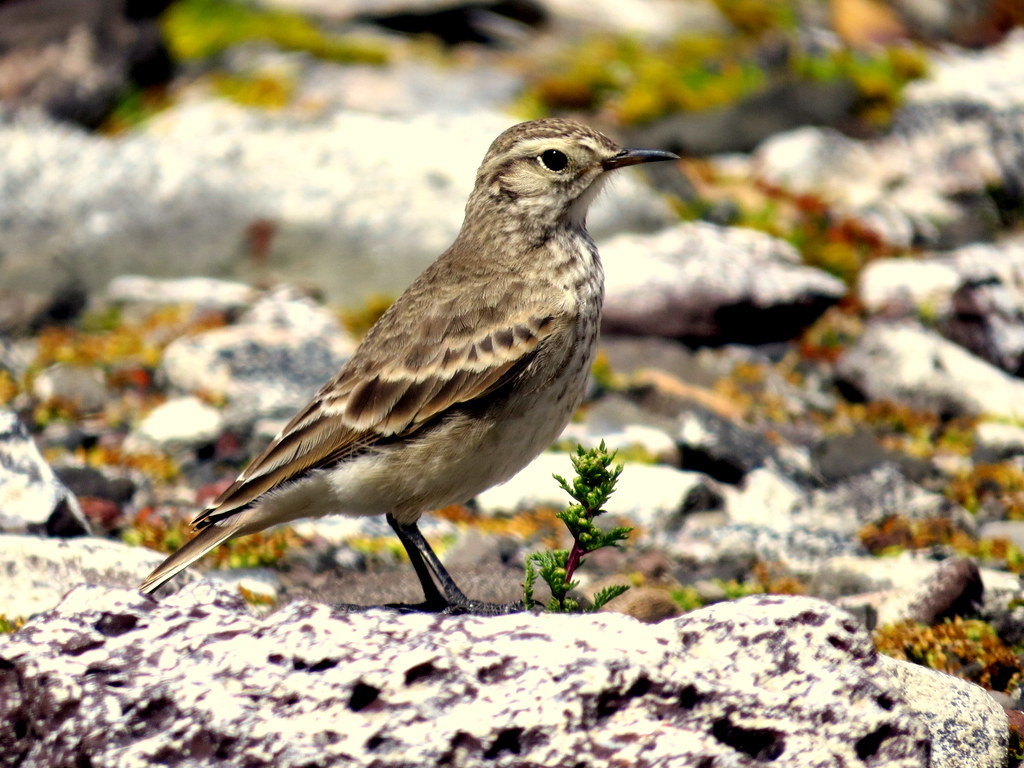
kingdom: Animalia
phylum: Chordata
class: Aves
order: Passeriformes
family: Furnariidae
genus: Geositta
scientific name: Geositta cunicularia
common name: Common miner
